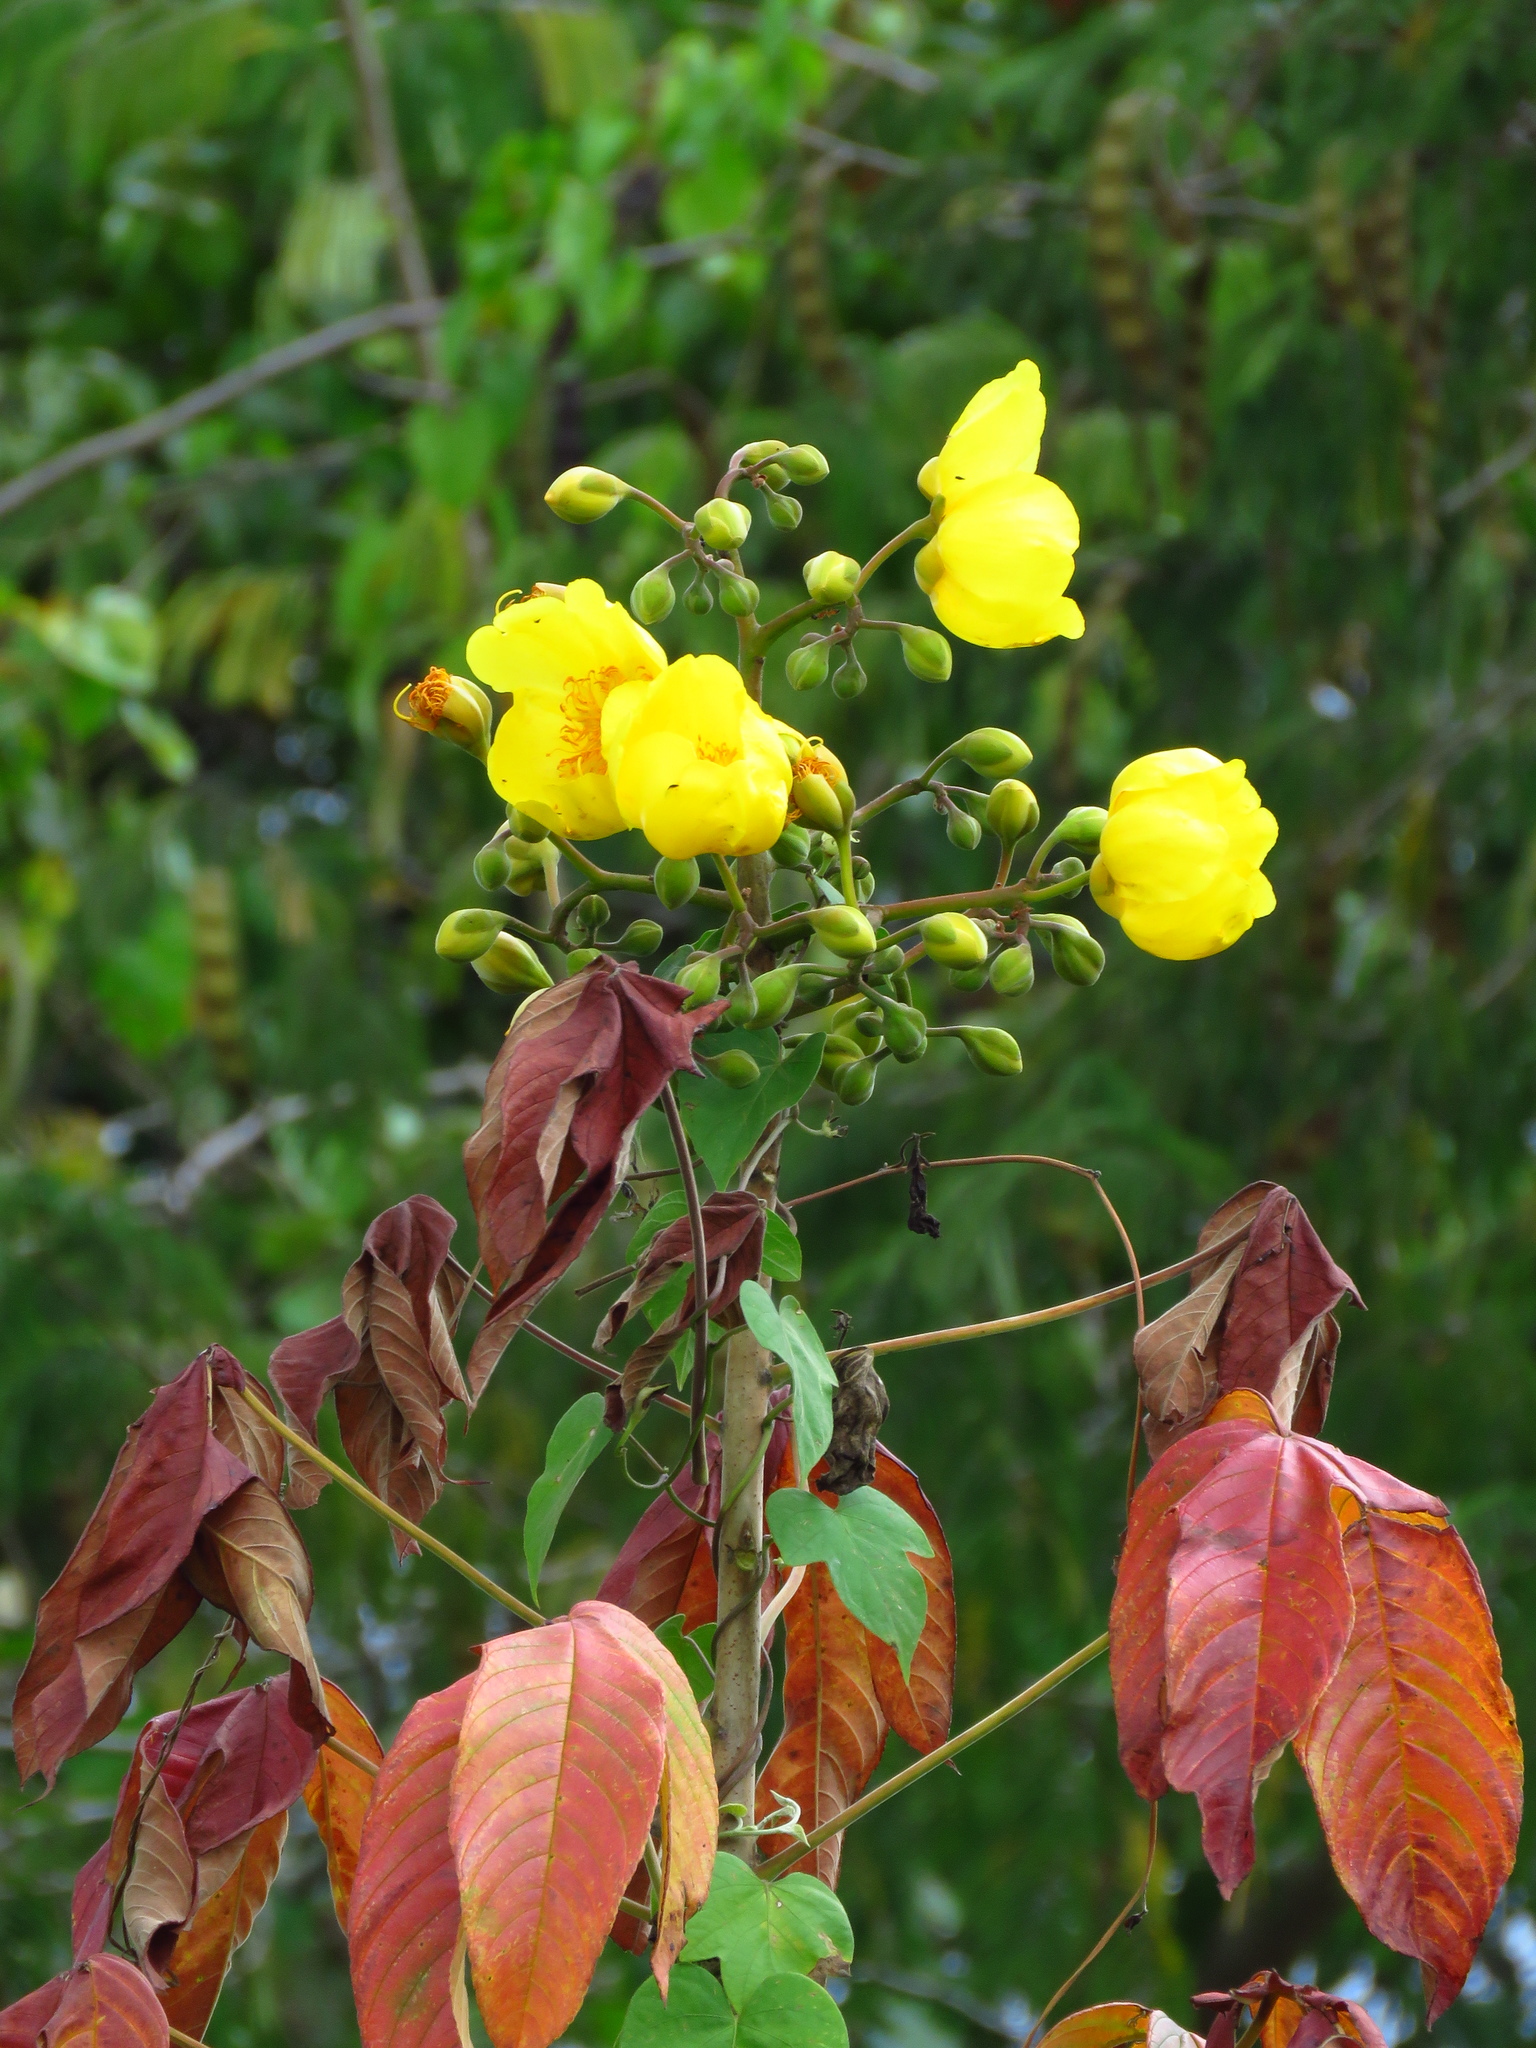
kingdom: Plantae
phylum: Tracheophyta
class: Magnoliopsida
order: Malvales
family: Cochlospermaceae
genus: Cochlospermum
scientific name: Cochlospermum vitifolium
